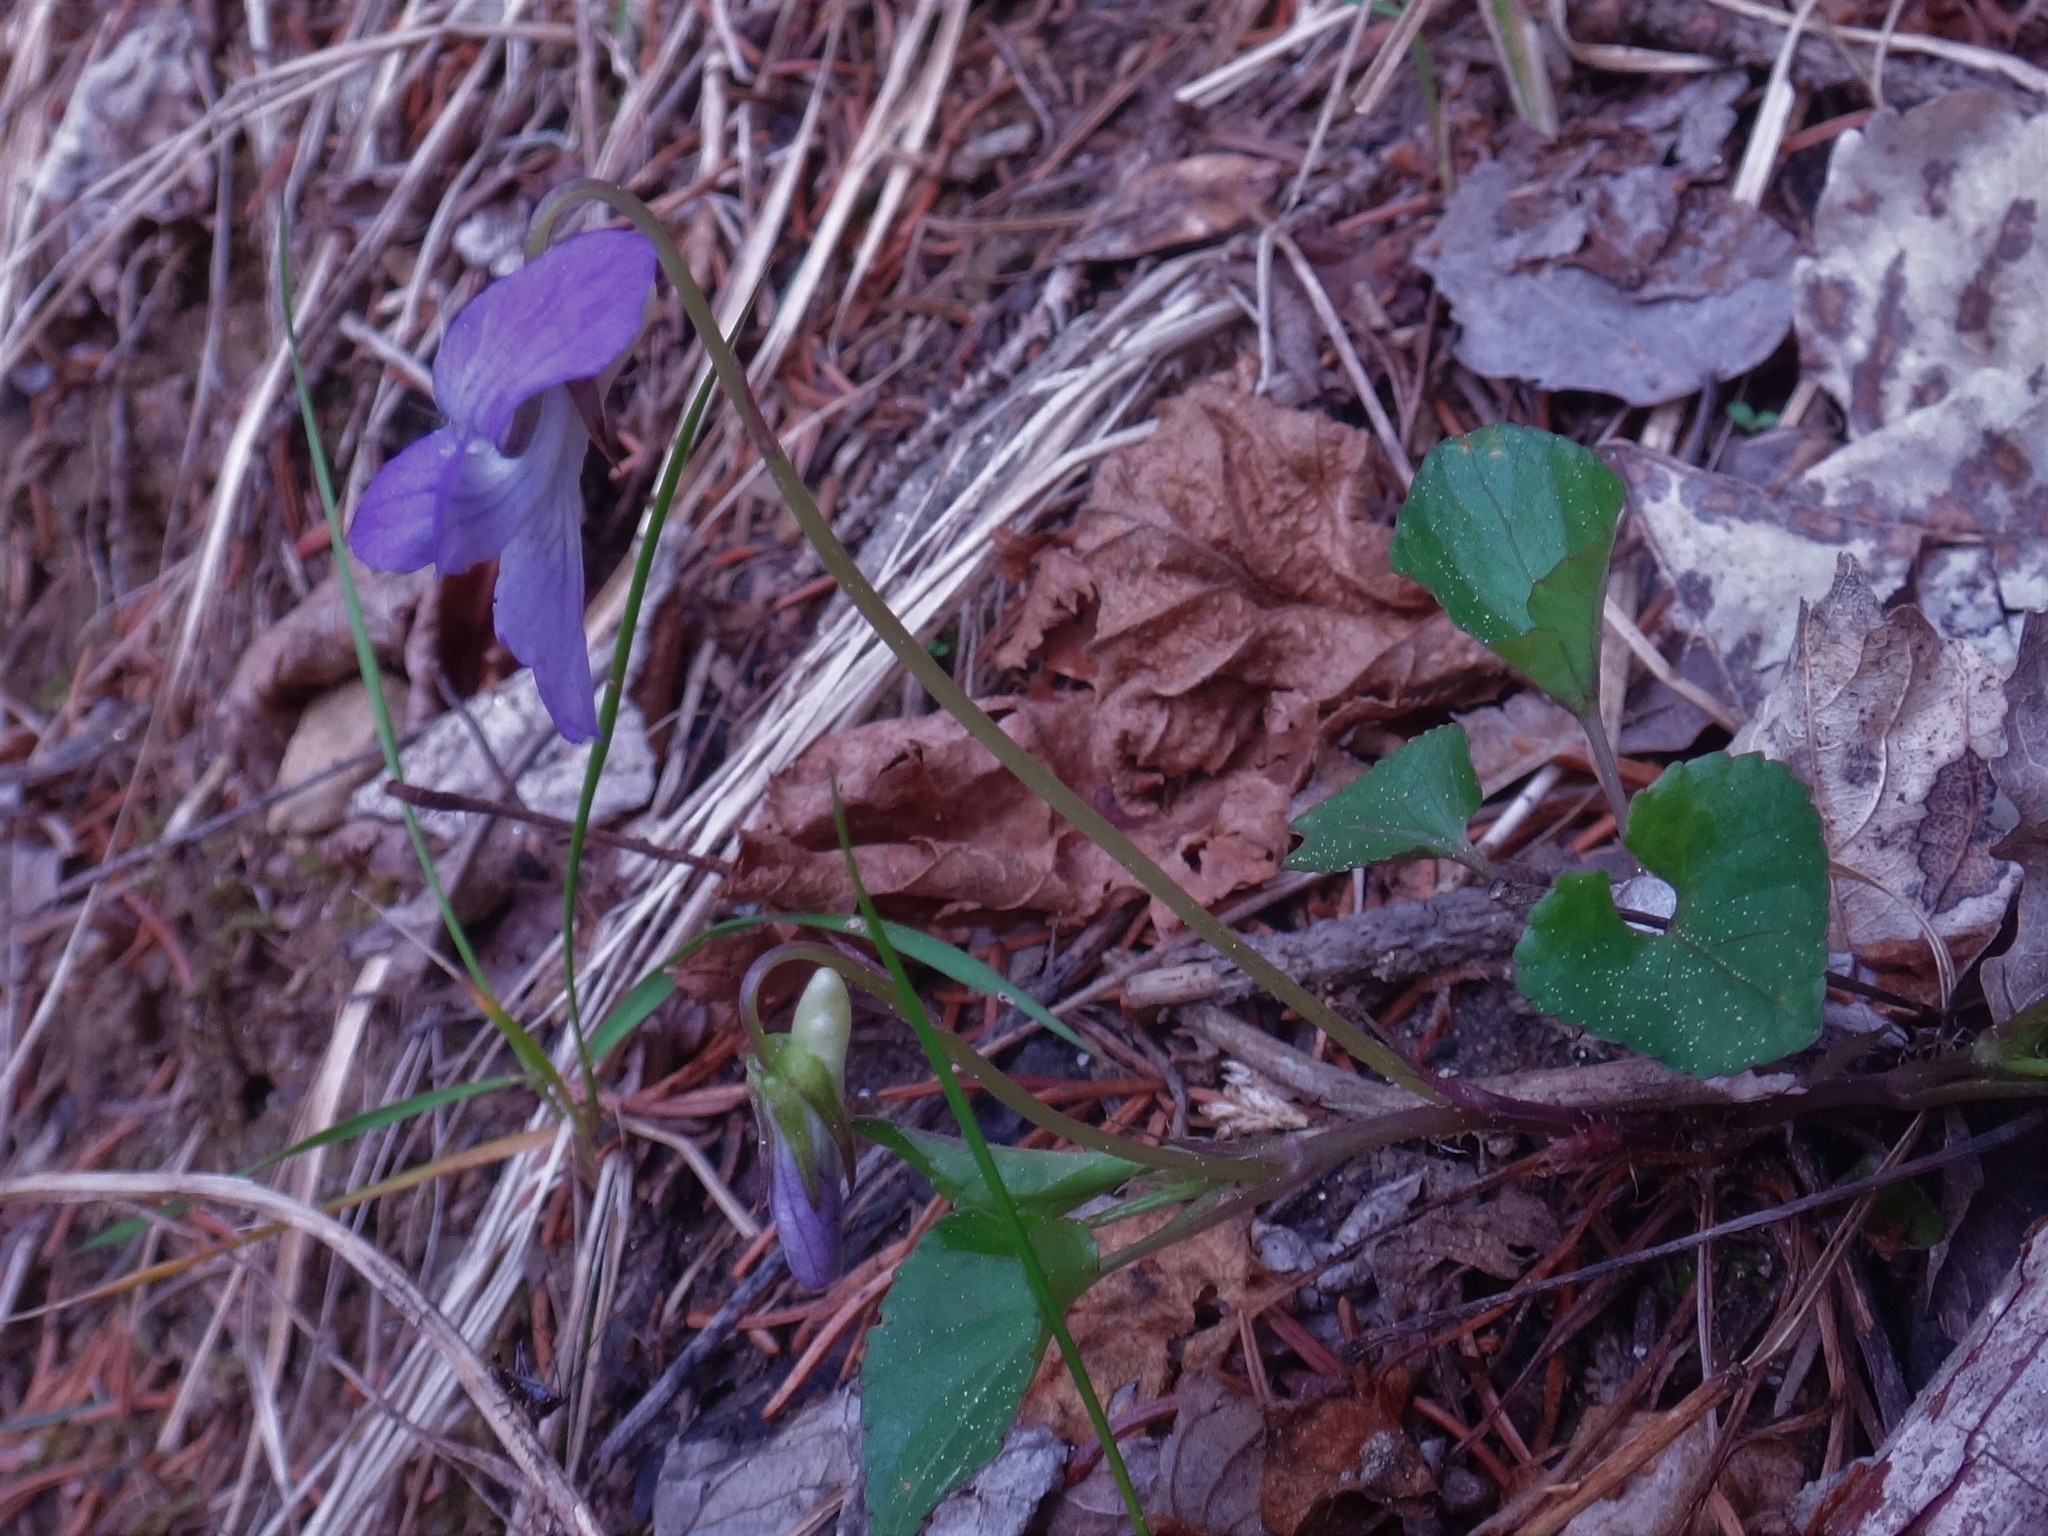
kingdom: Plantae
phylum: Tracheophyta
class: Magnoliopsida
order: Malpighiales
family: Violaceae
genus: Viola
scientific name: Viola riviniana
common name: Common dog-violet
